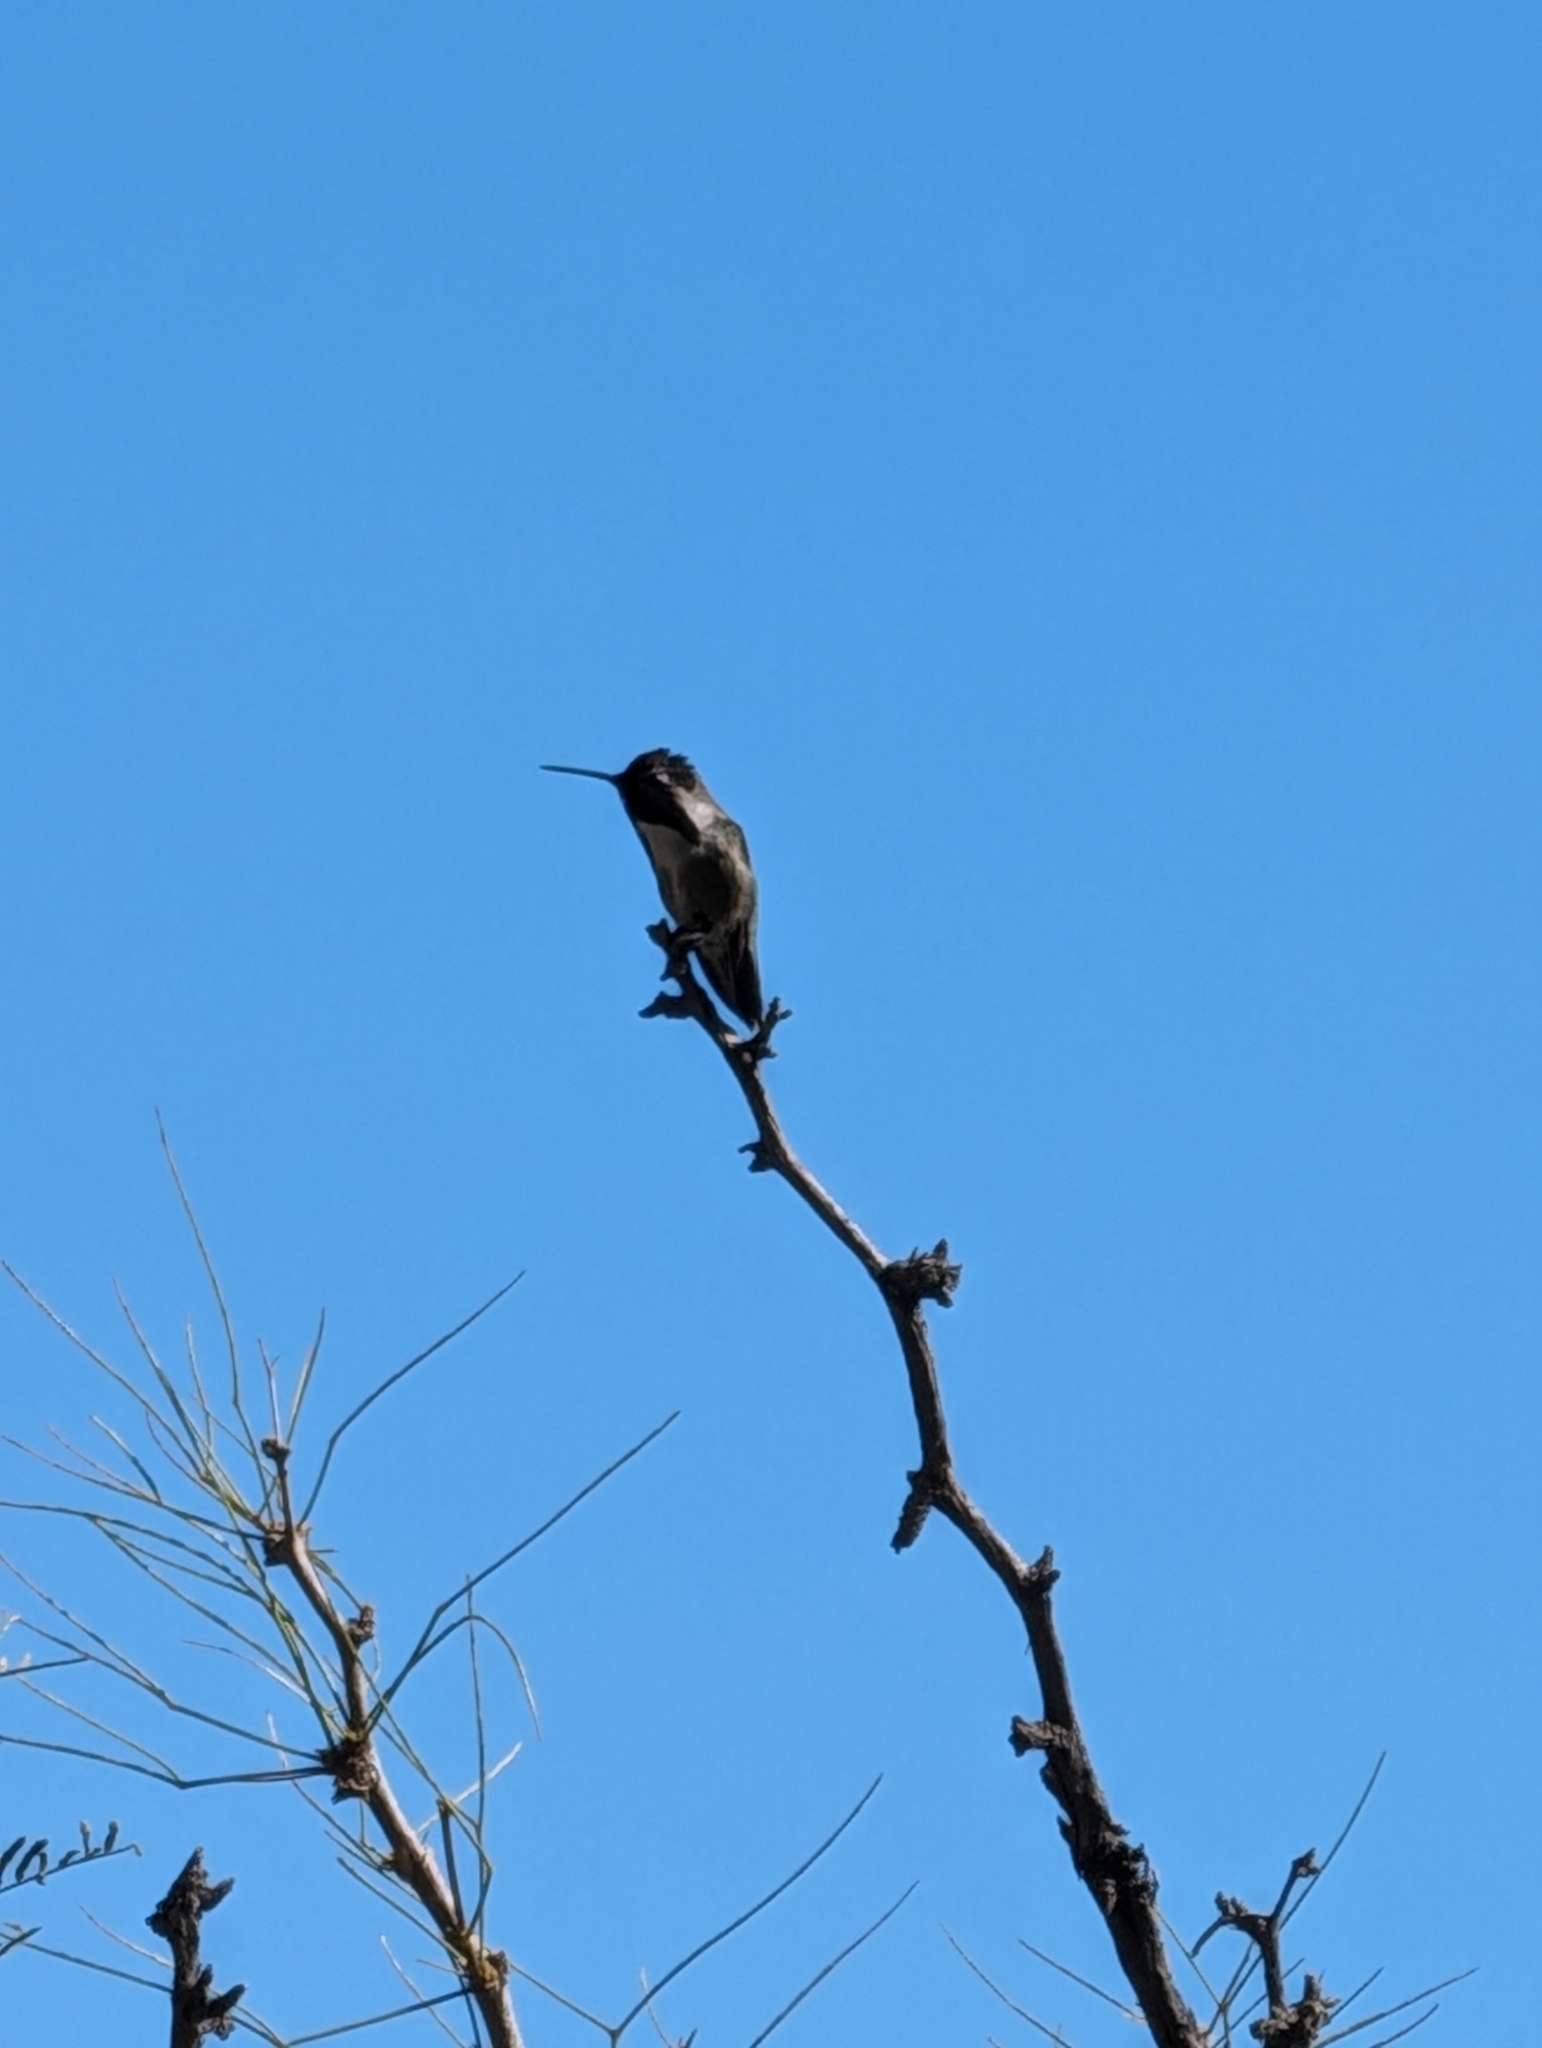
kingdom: Animalia
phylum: Chordata
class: Aves
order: Apodiformes
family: Trochilidae
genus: Calypte
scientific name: Calypte costae
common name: Costa's hummingbird
